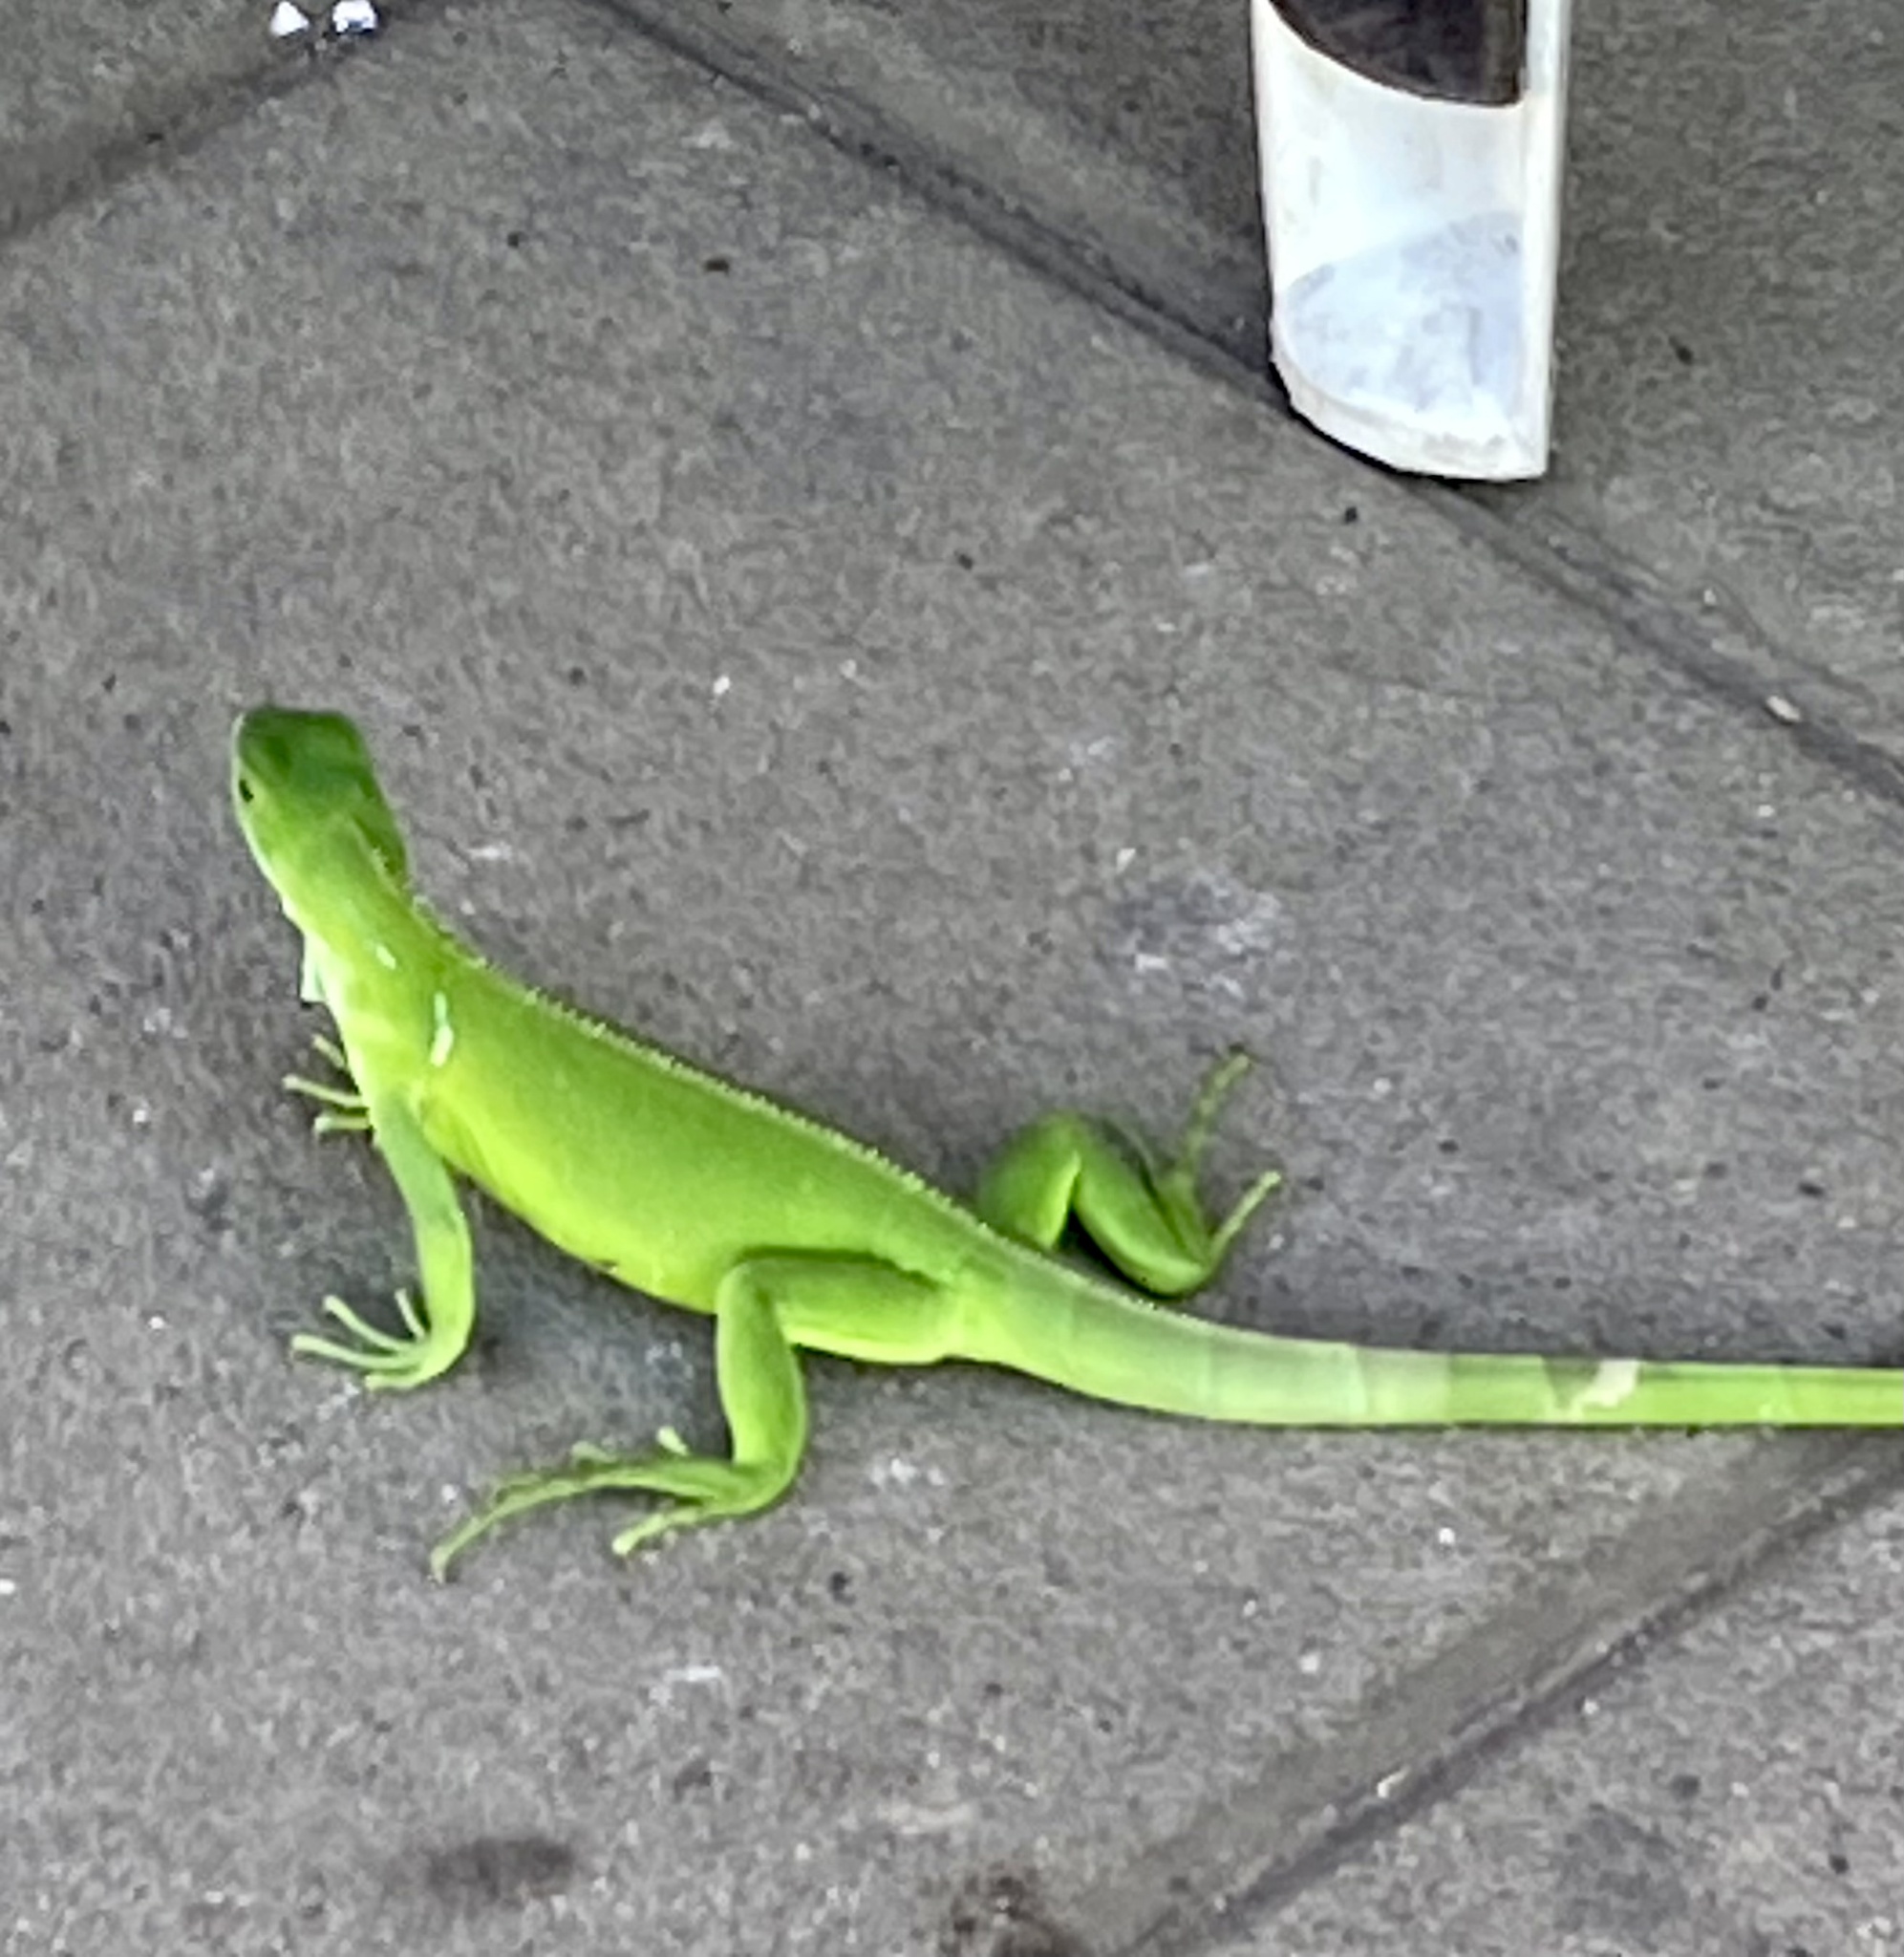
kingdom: Animalia
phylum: Chordata
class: Squamata
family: Iguanidae
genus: Iguana
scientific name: Iguana iguana
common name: Green iguana
